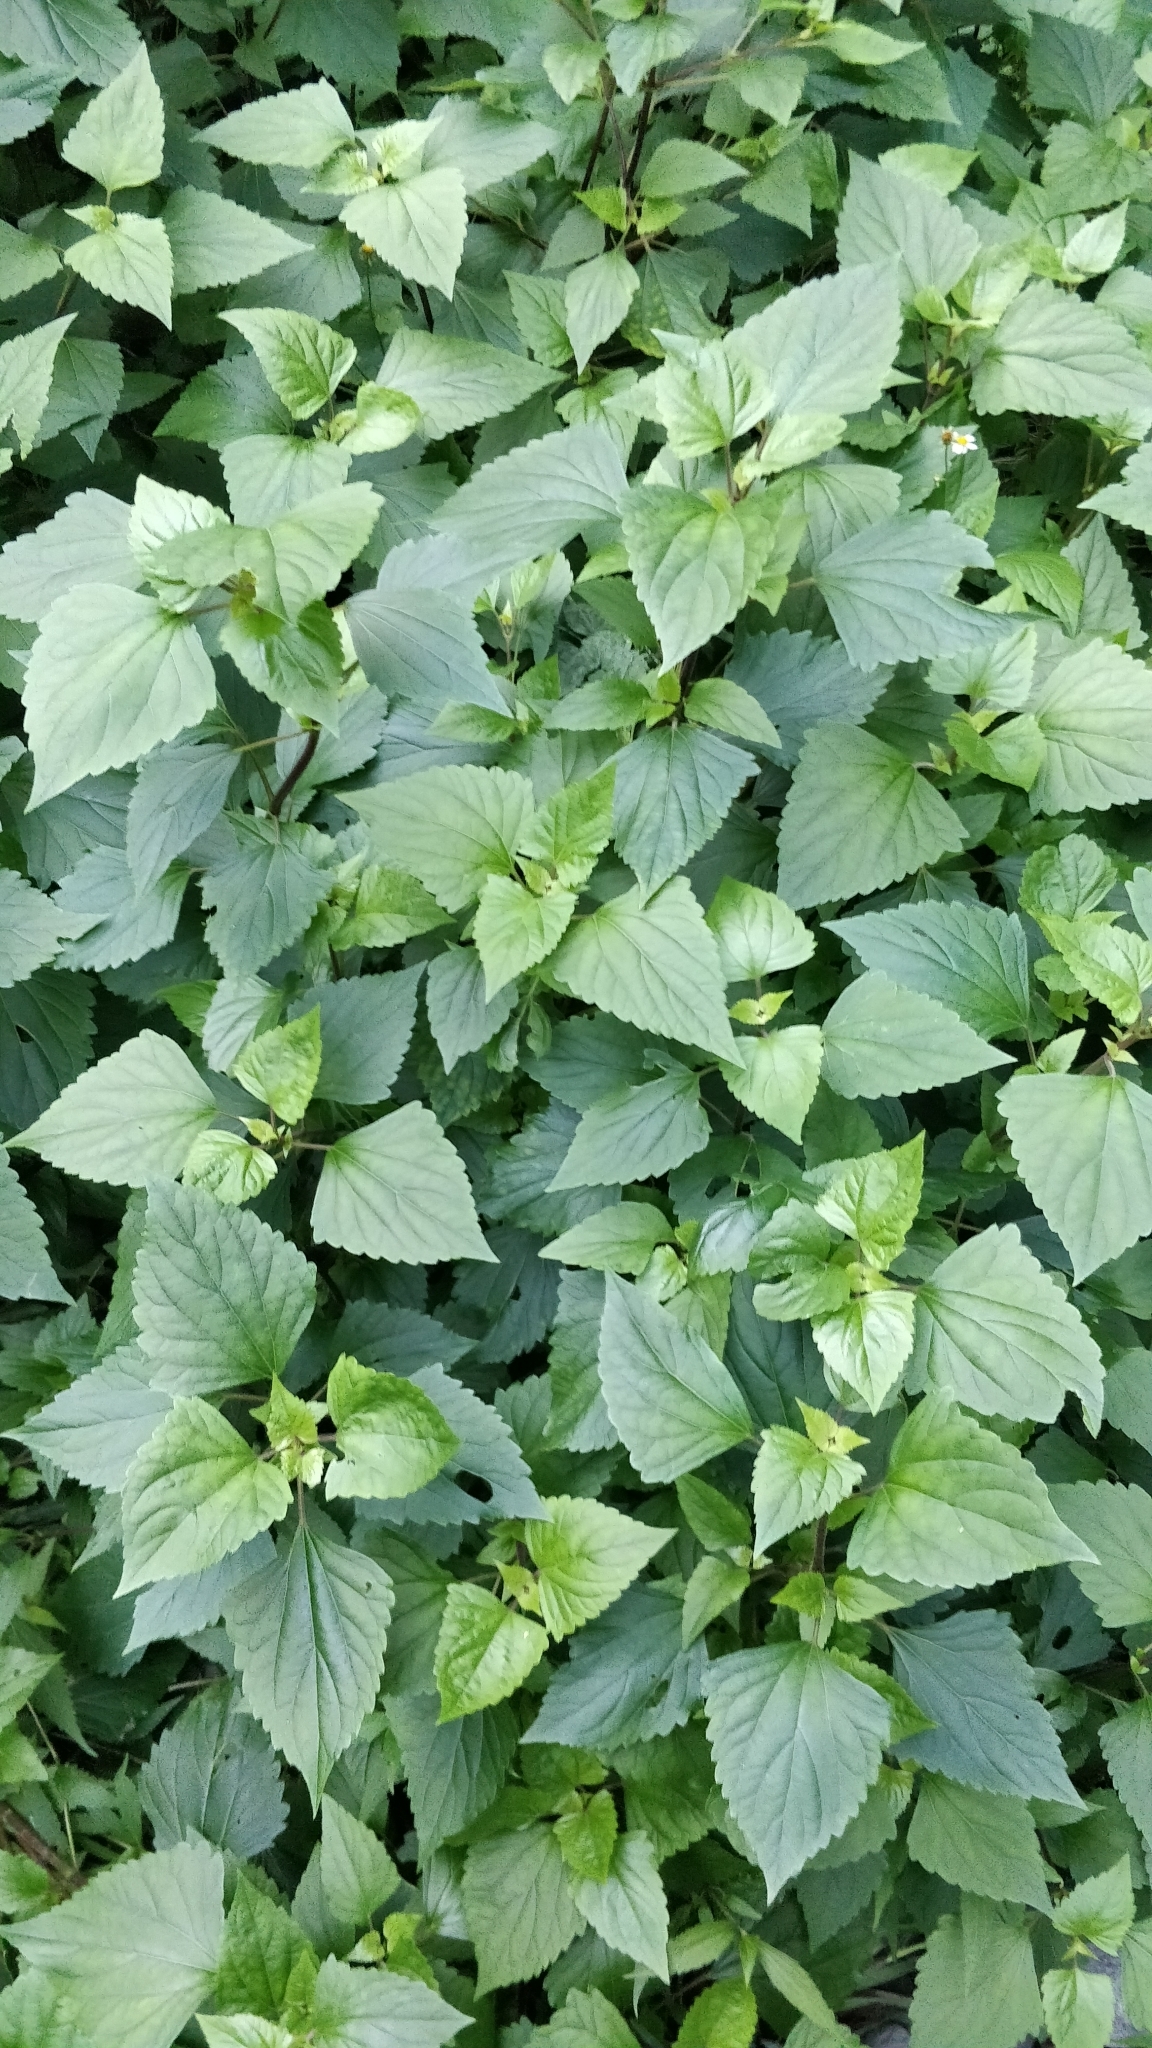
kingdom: Plantae
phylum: Tracheophyta
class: Magnoliopsida
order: Asterales
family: Asteraceae
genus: Ageratina
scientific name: Ageratina adenophora
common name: Sticky snakeroot
